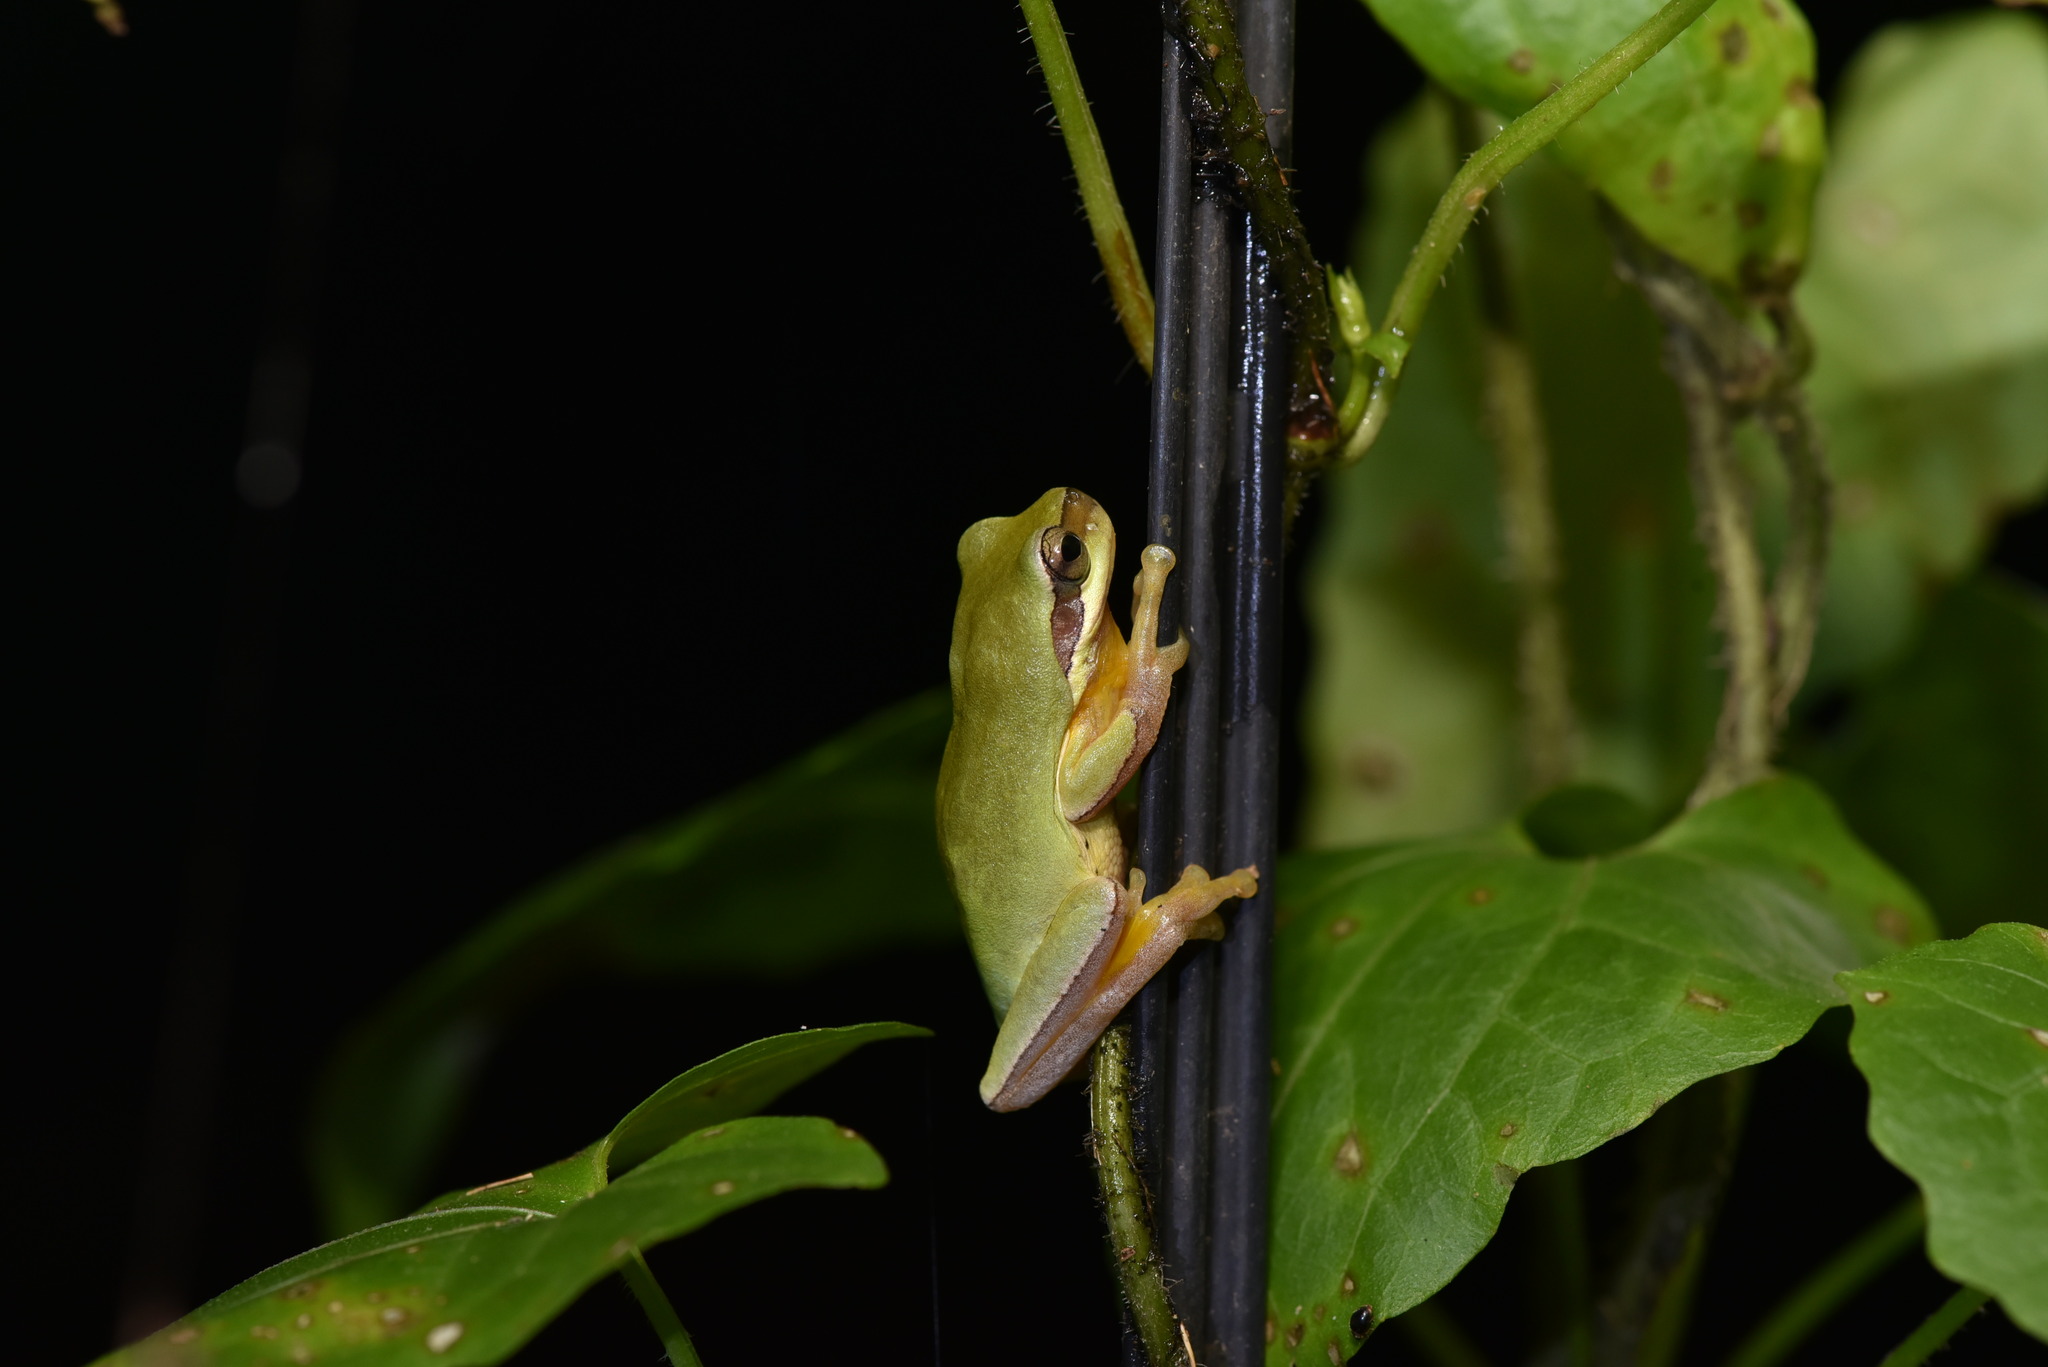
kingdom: Animalia
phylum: Chordata
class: Amphibia
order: Anura
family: Hylidae
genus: Hyla
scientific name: Hyla chinensis
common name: Common chinese treefrog
